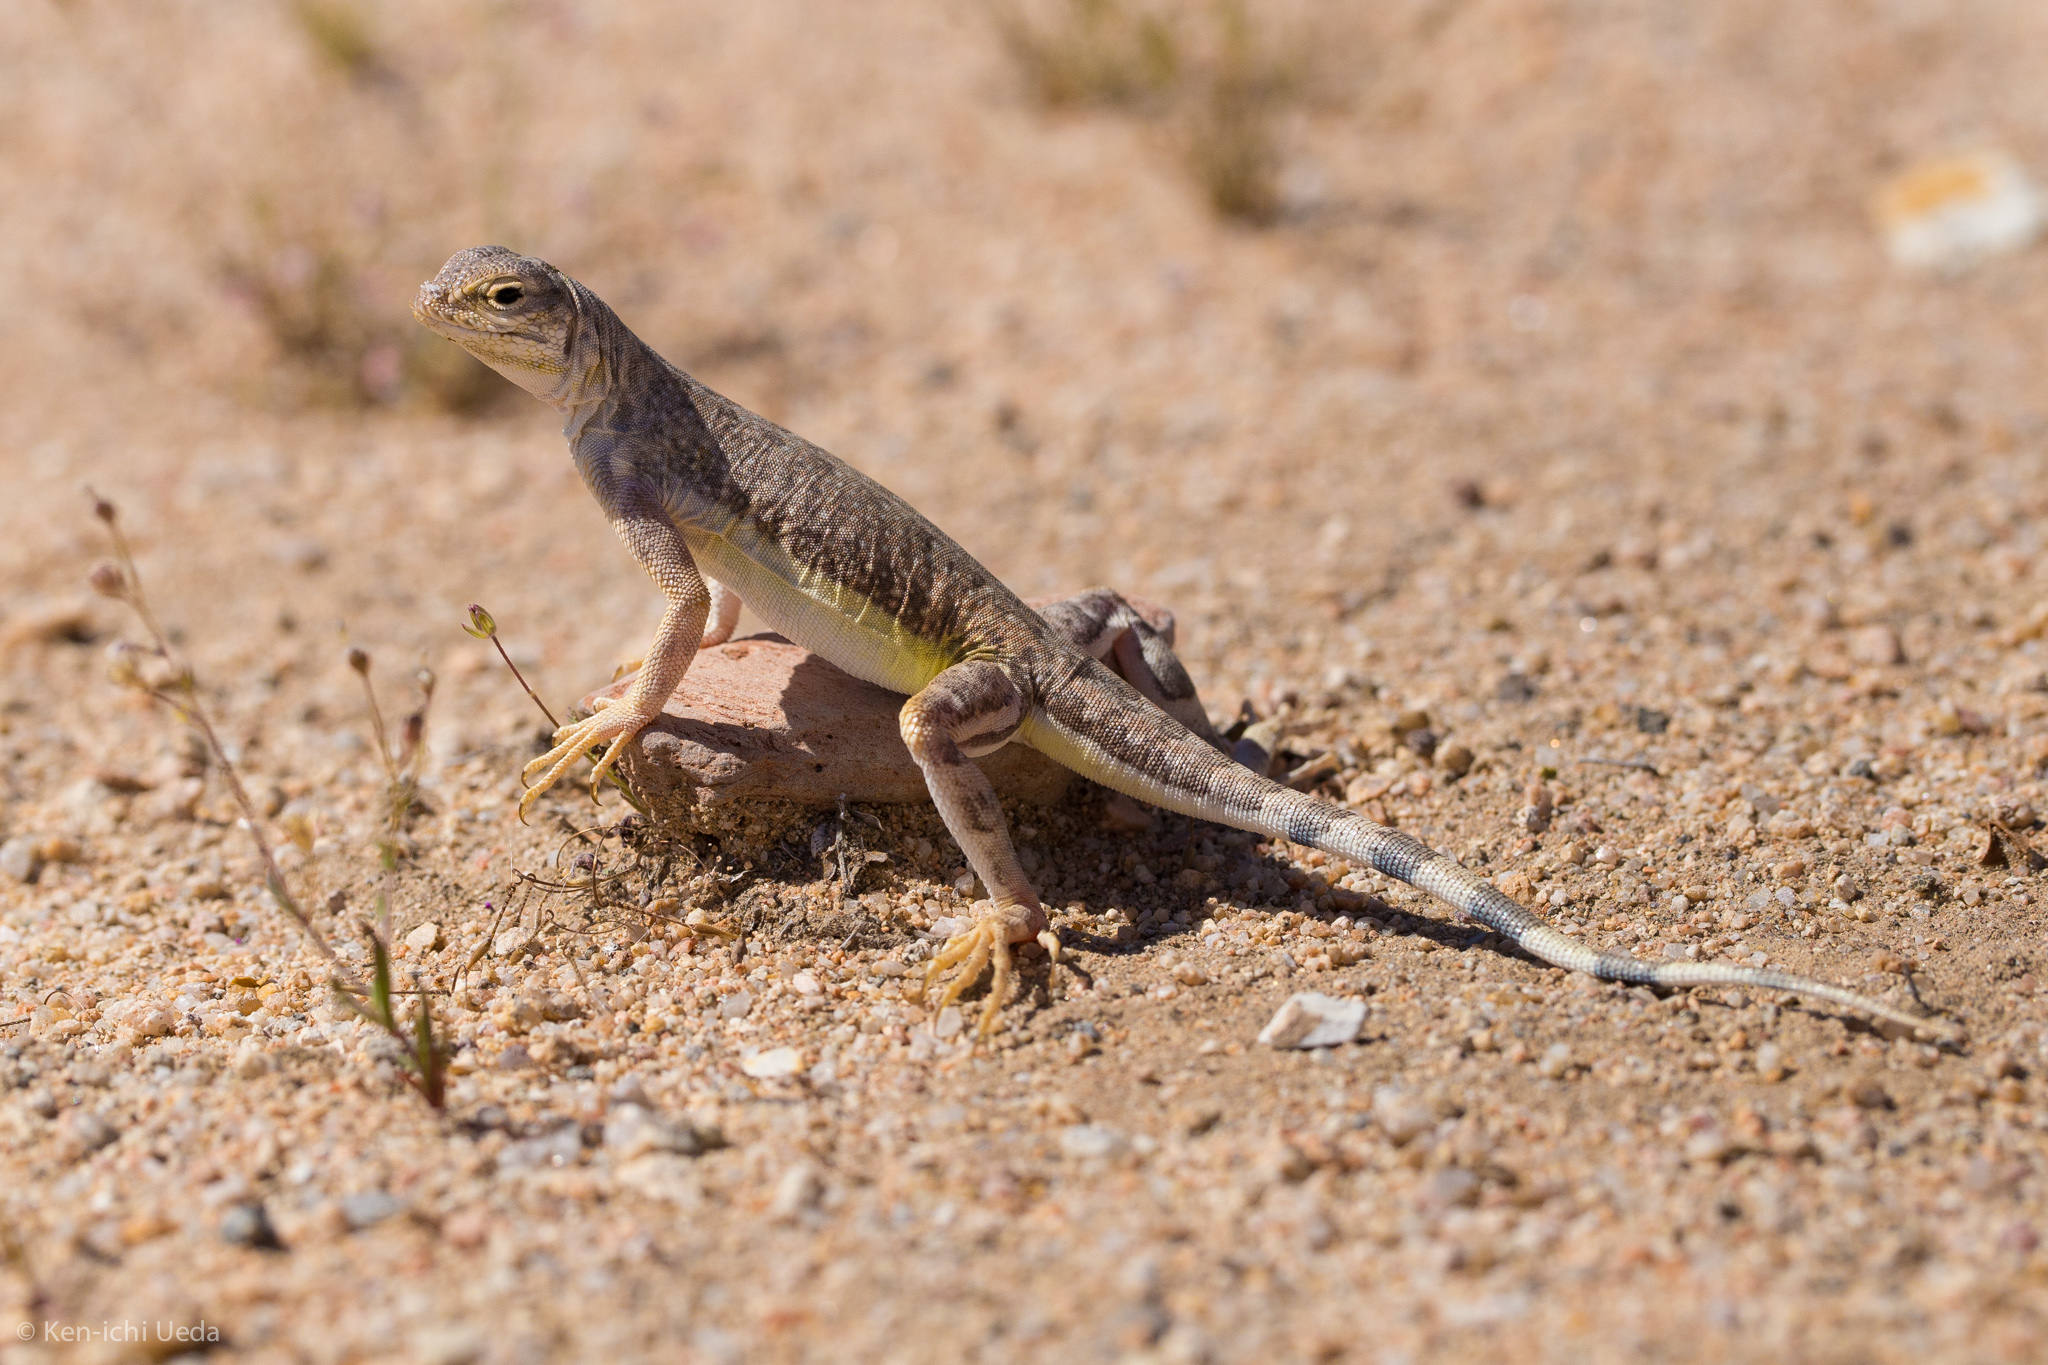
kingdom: Animalia
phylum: Chordata
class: Squamata
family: Phrynosomatidae
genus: Callisaurus
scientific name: Callisaurus draconoides
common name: Zebra-tailed lizard
